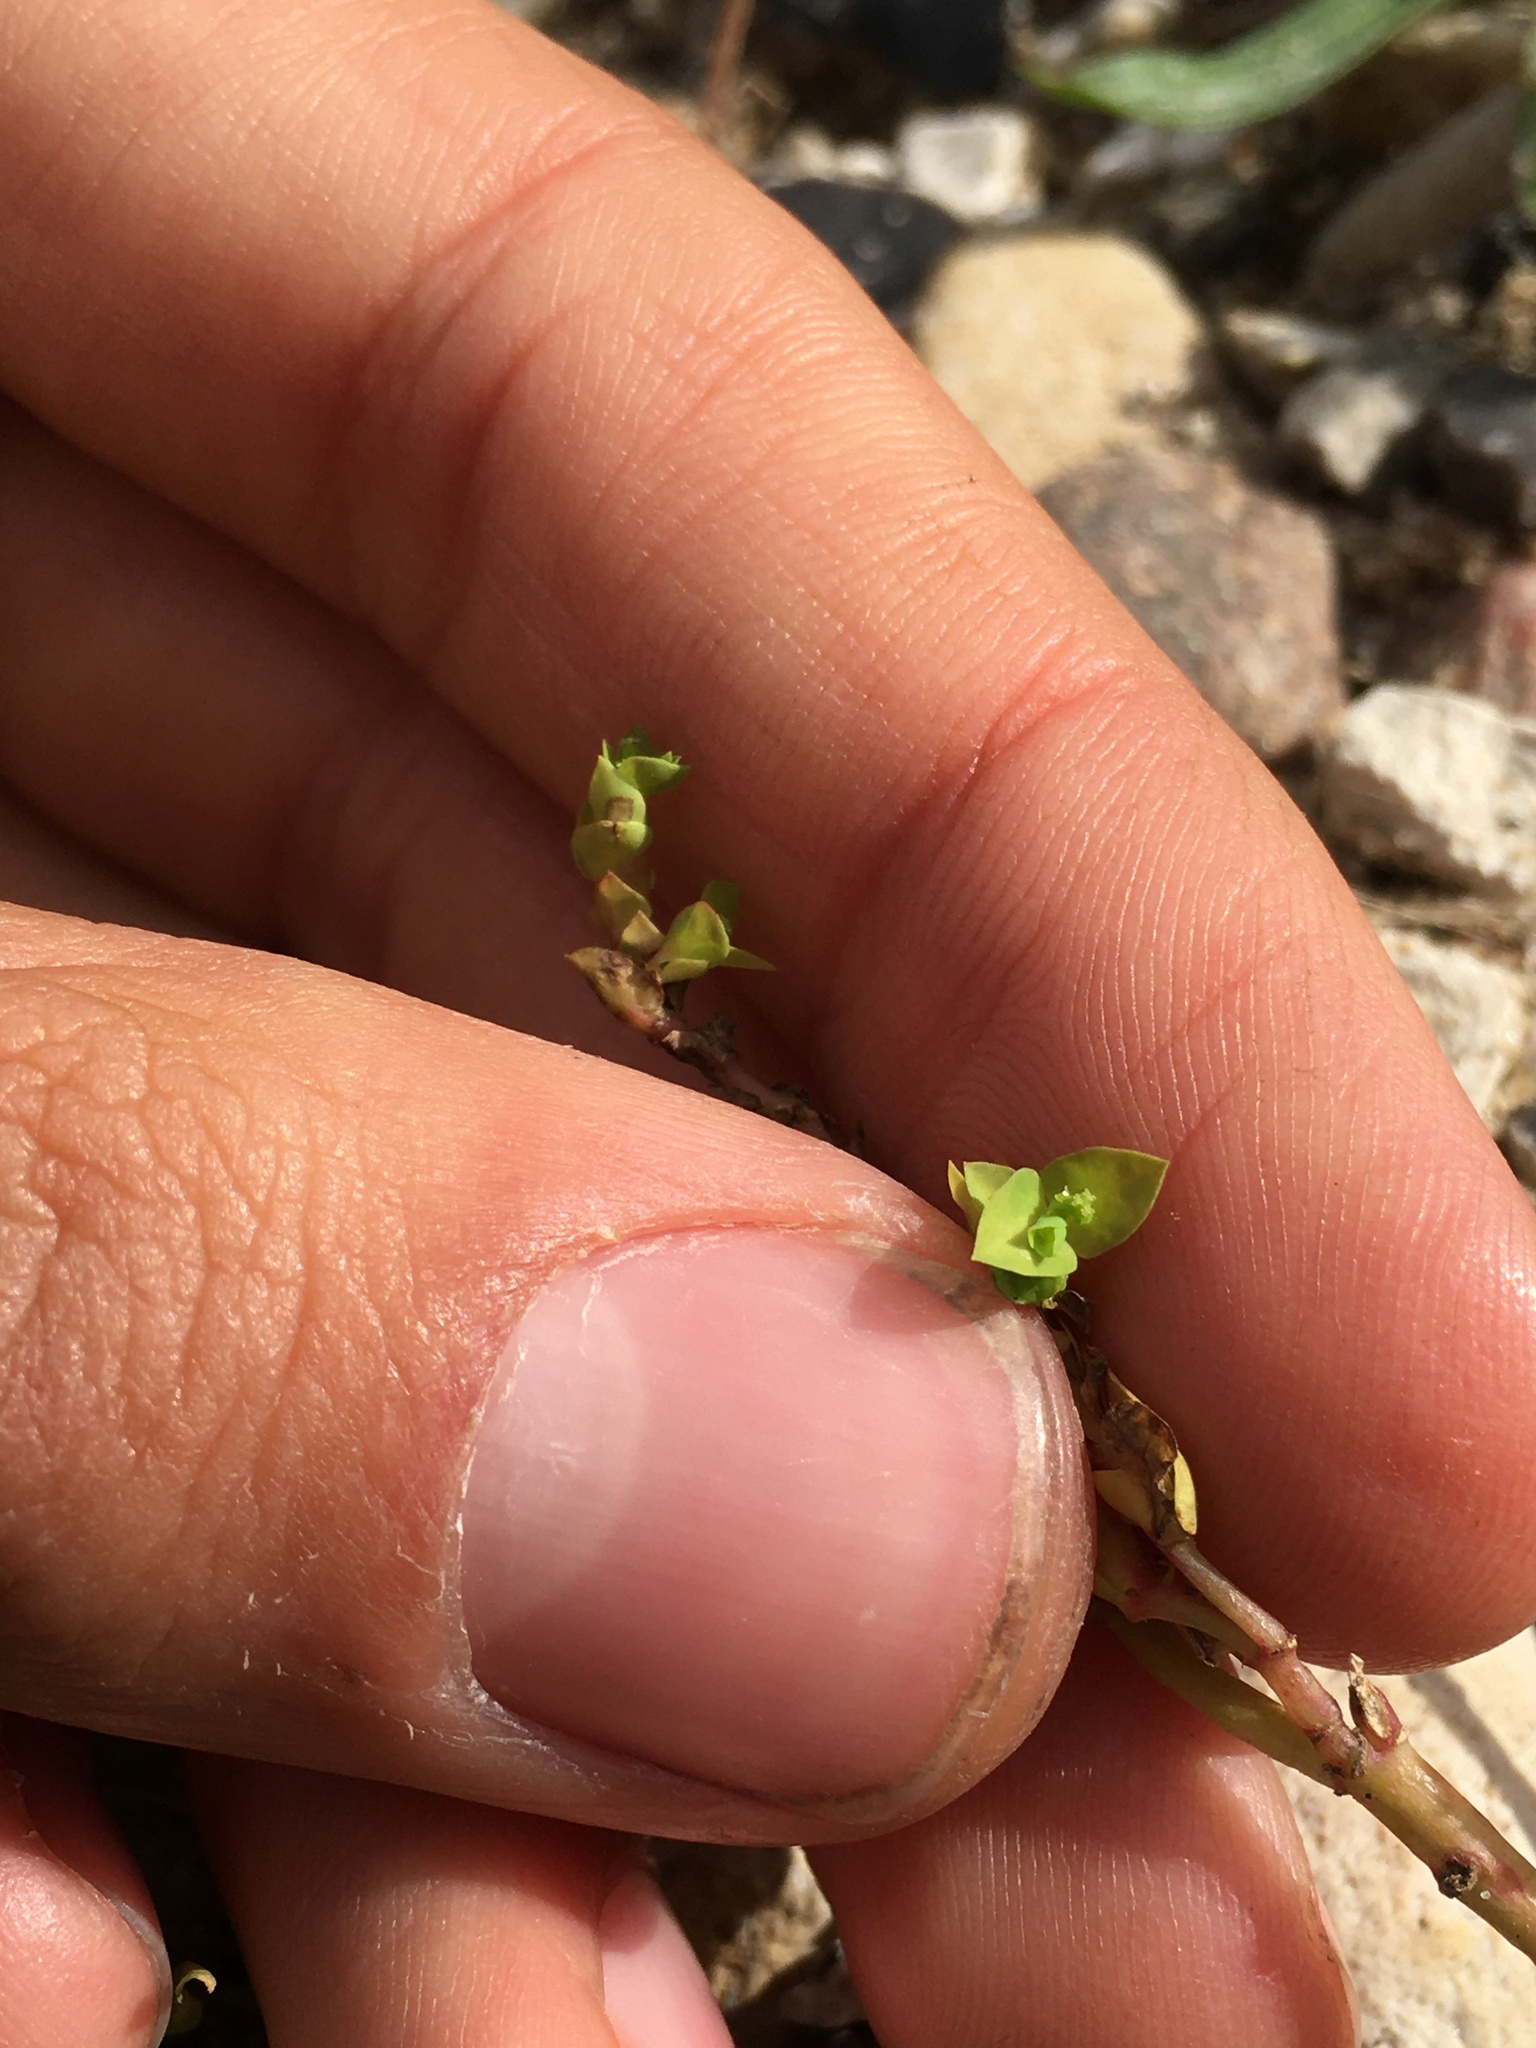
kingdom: Plantae
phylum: Tracheophyta
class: Magnoliopsida
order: Malpighiales
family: Euphorbiaceae
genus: Euphorbia
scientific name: Euphorbia peplus
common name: Petty spurge
